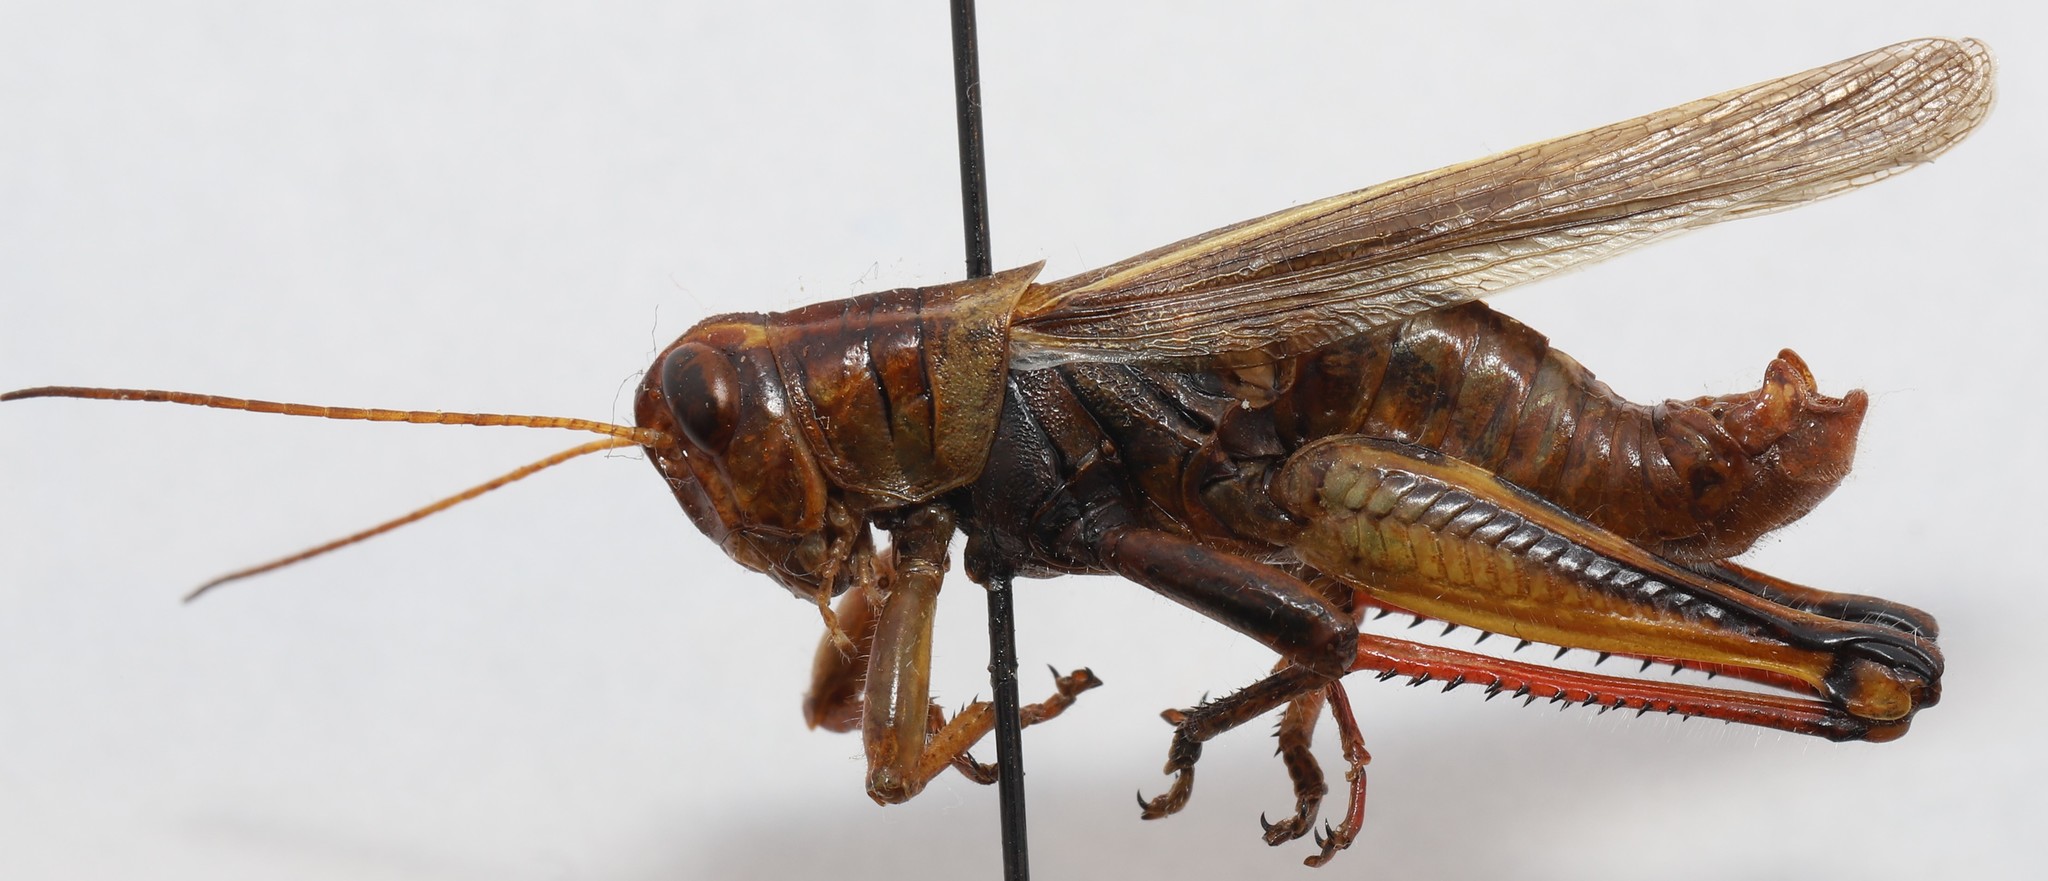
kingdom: Animalia
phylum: Arthropoda
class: Insecta
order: Orthoptera
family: Acrididae
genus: Melanoplus
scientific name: Melanoplus bivittatus
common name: Two-striped grasshopper
